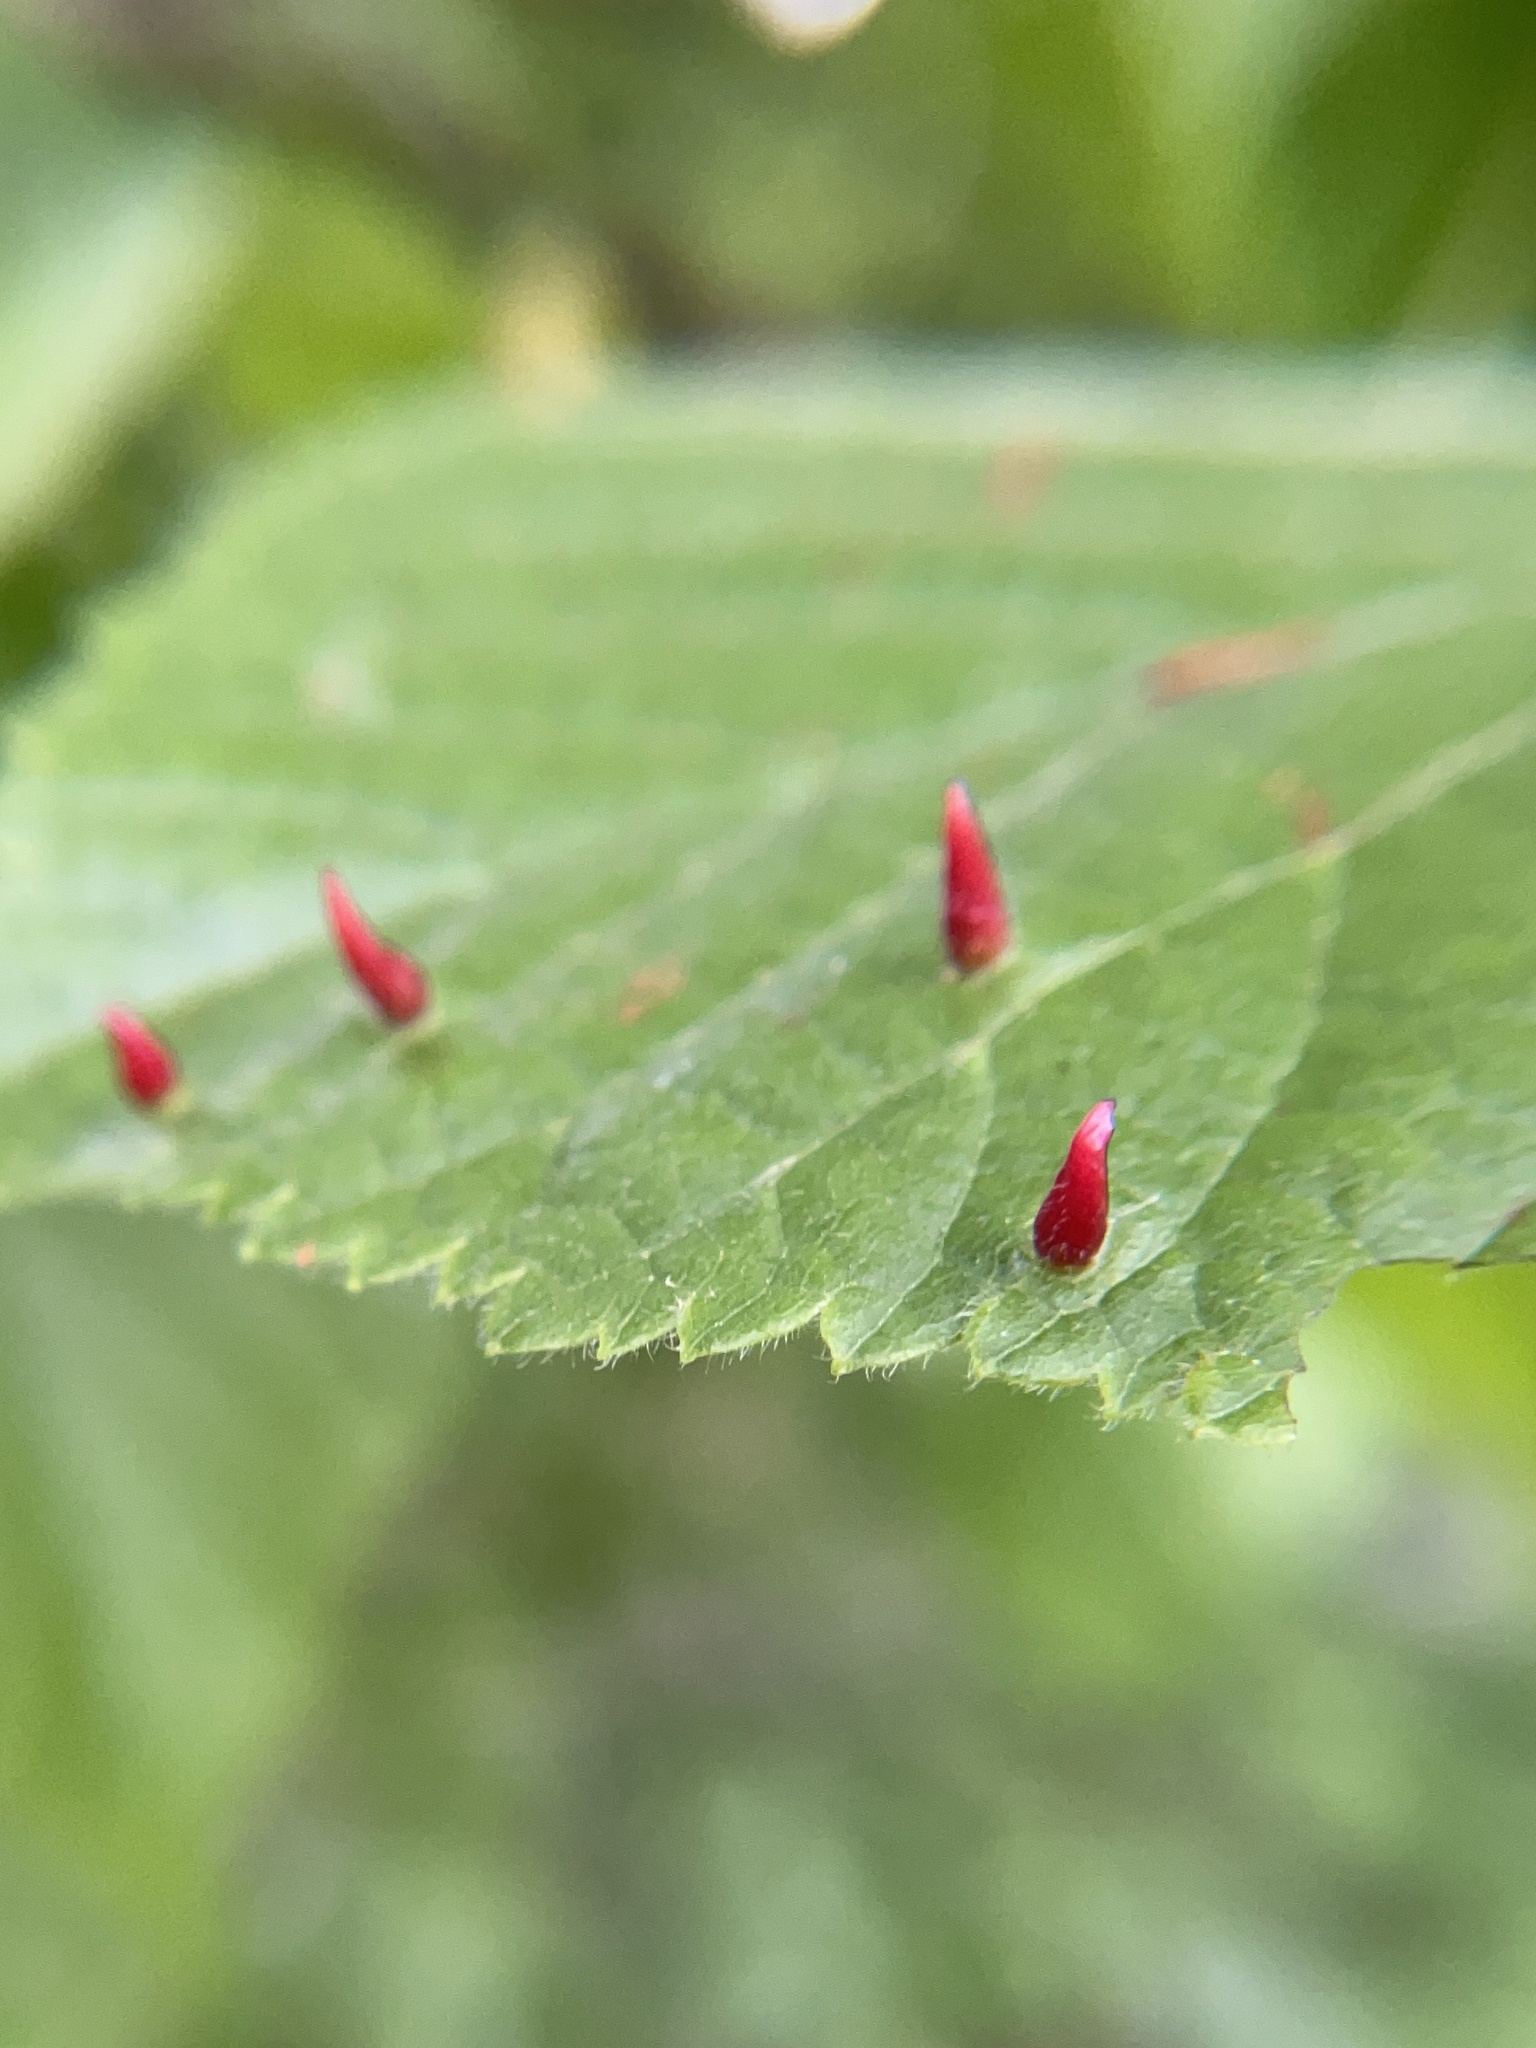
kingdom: Animalia
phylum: Arthropoda
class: Arachnida
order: Trombidiformes
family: Eriophyidae
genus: Eriophyes
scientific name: Eriophyes tiliae
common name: Red nail gall mite
